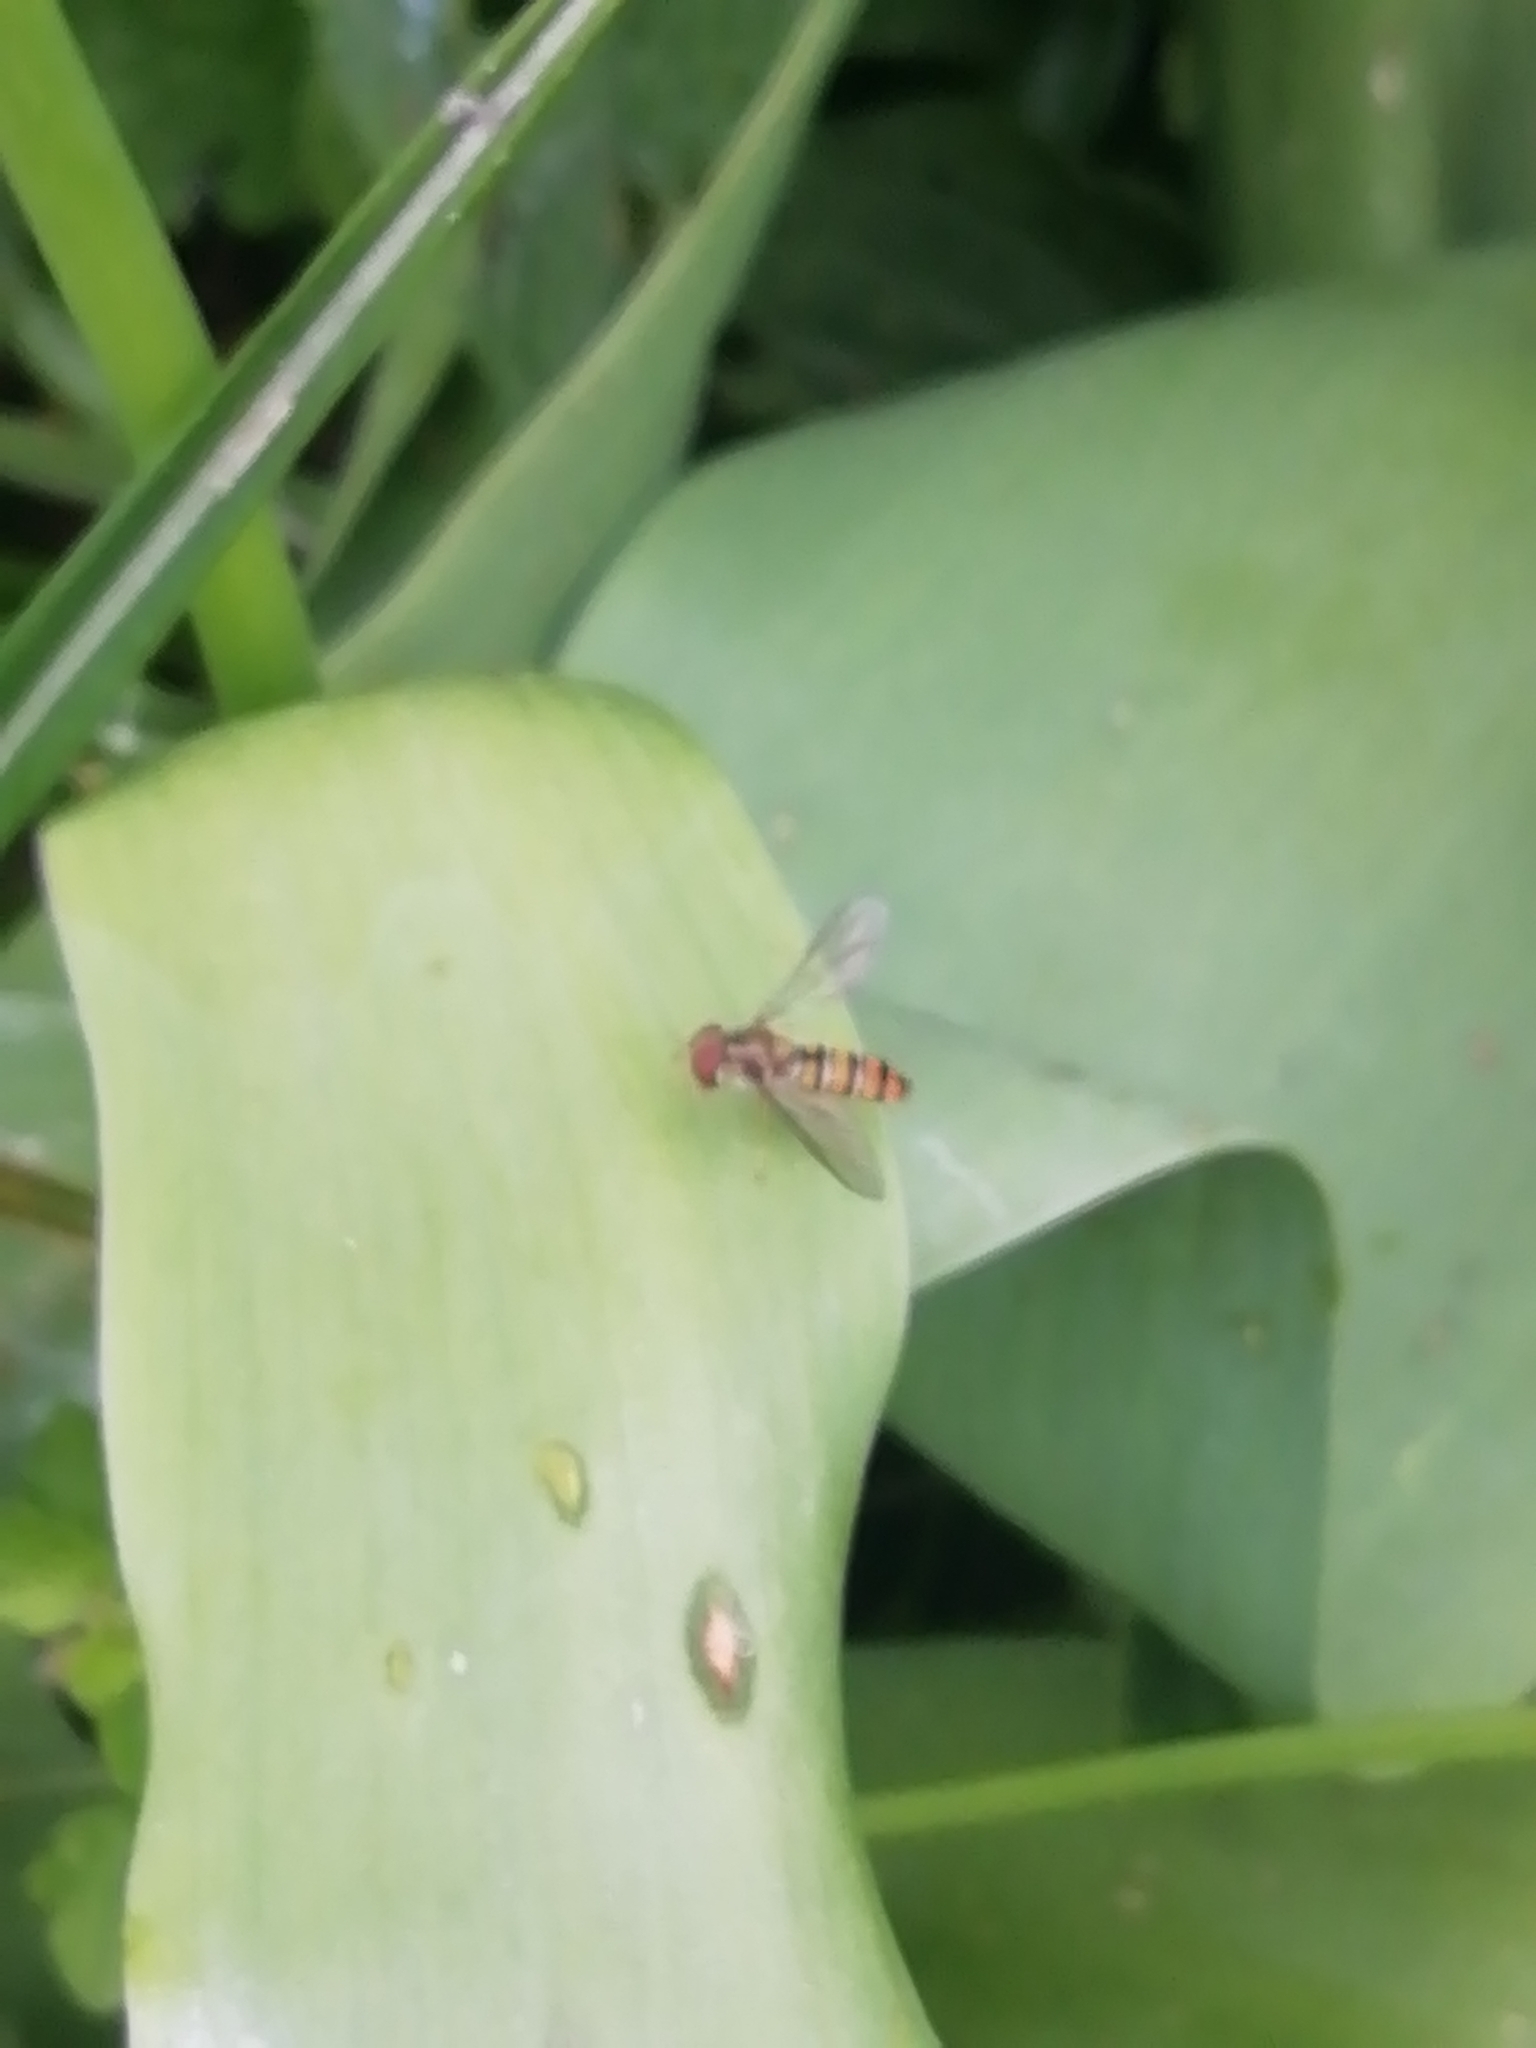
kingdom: Animalia
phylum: Arthropoda
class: Insecta
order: Diptera
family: Syrphidae
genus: Episyrphus
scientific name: Episyrphus balteatus
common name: Marmalade hoverfly
